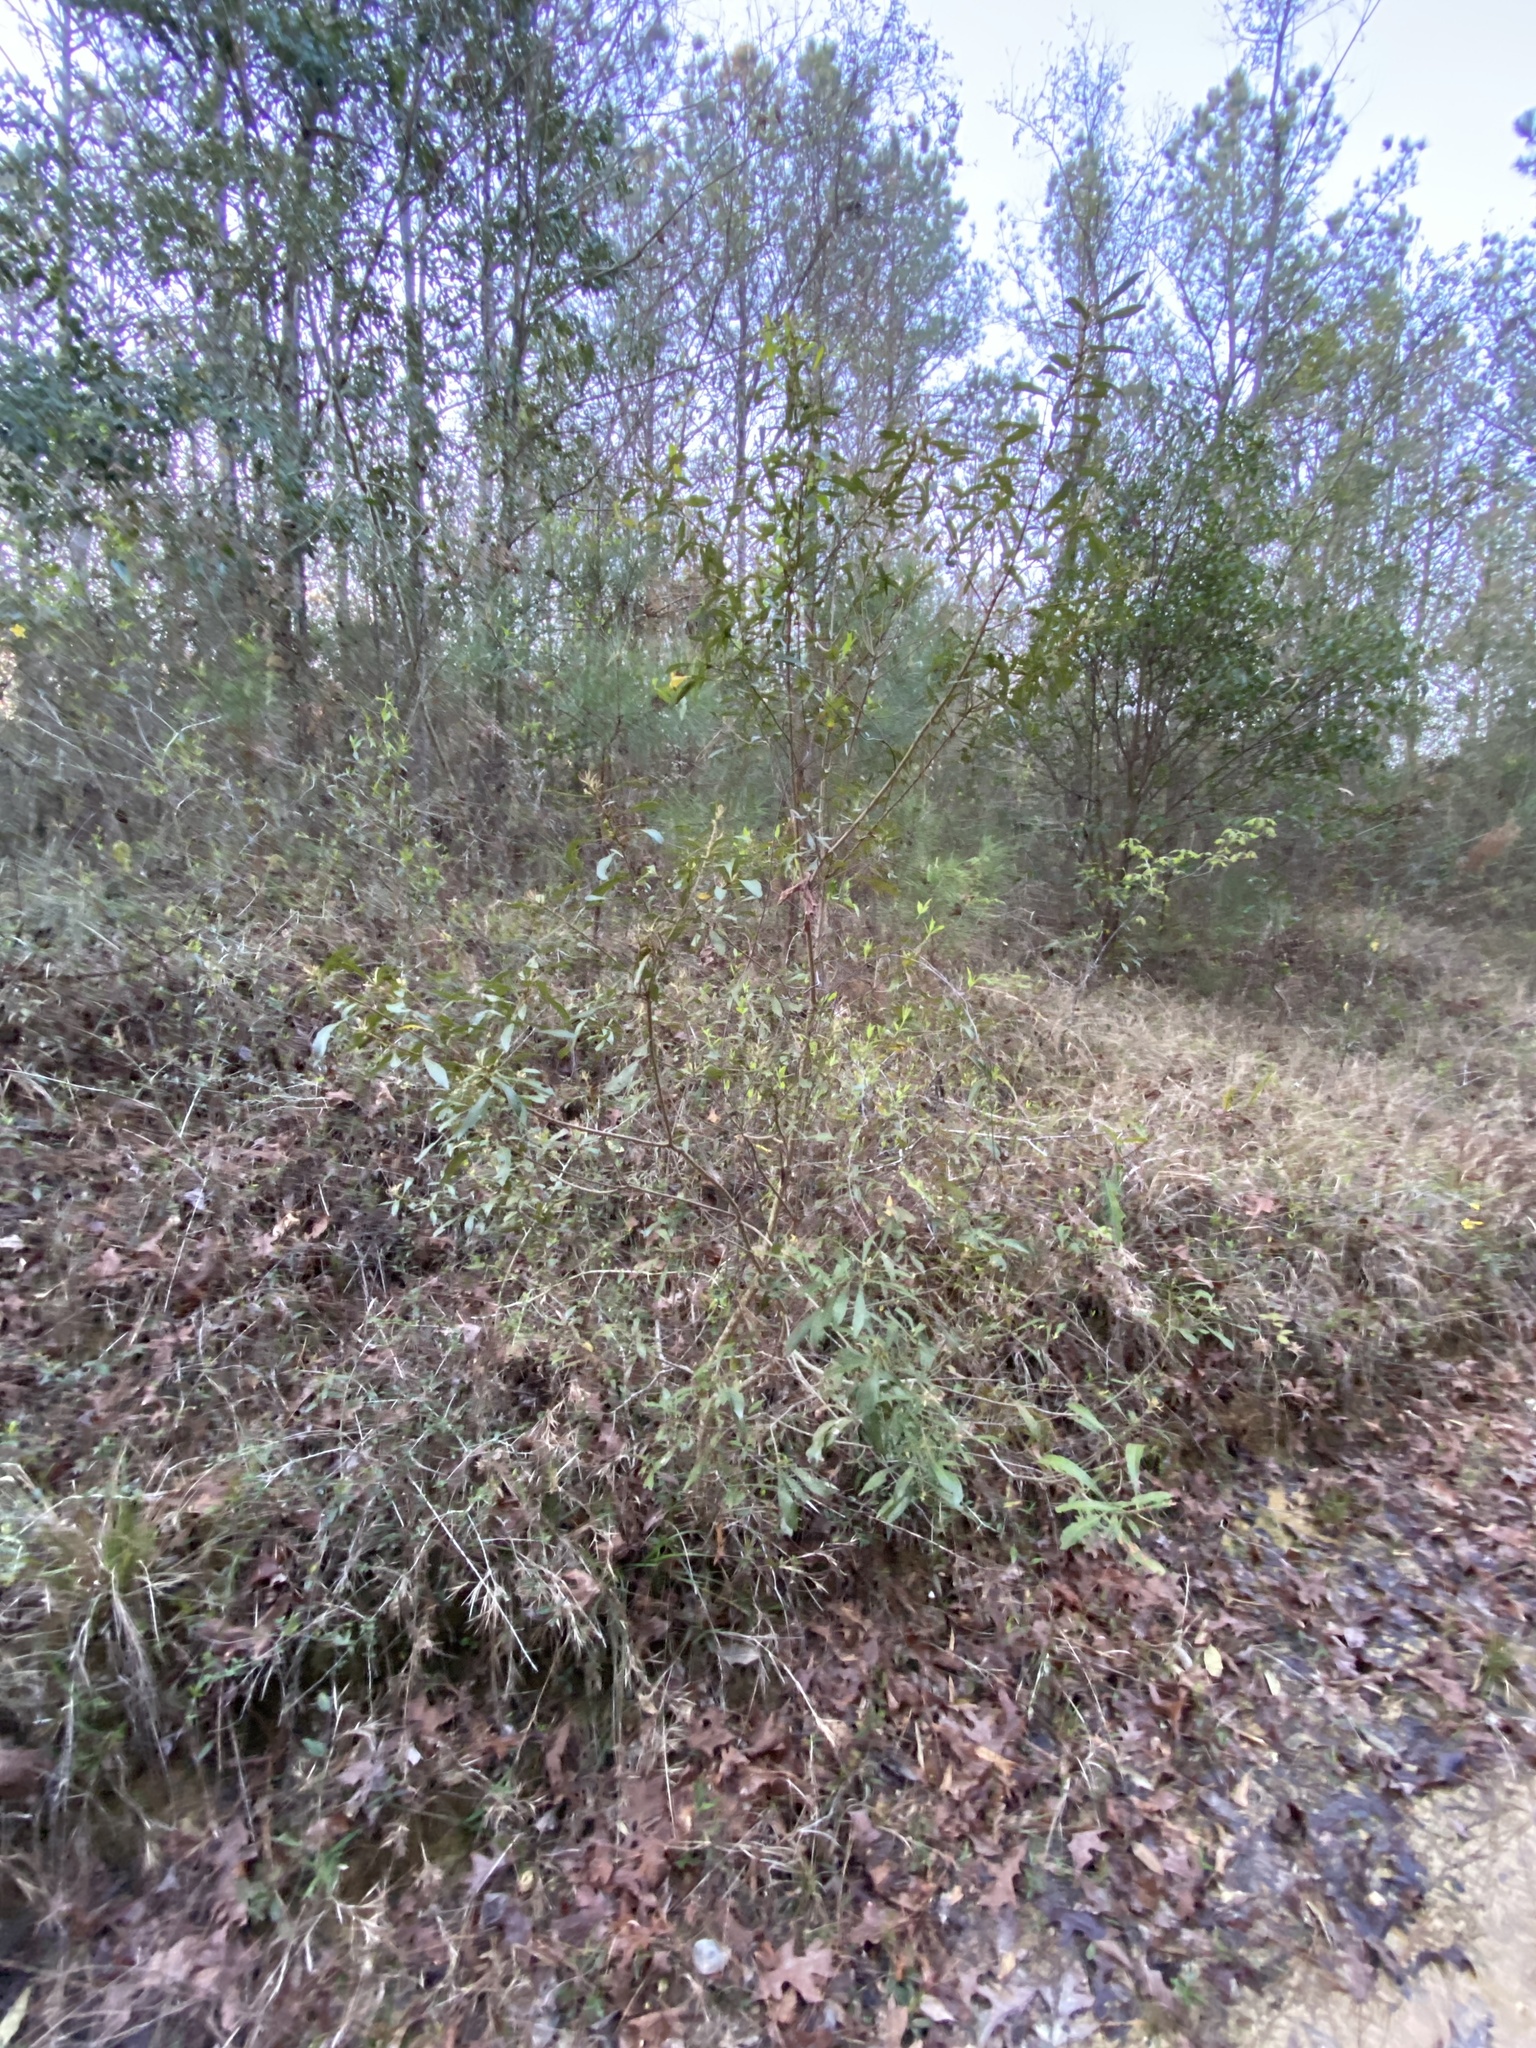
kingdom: Plantae
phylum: Tracheophyta
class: Magnoliopsida
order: Fagales
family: Myricaceae
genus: Morella
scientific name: Morella cerifera
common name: Wax myrtle
